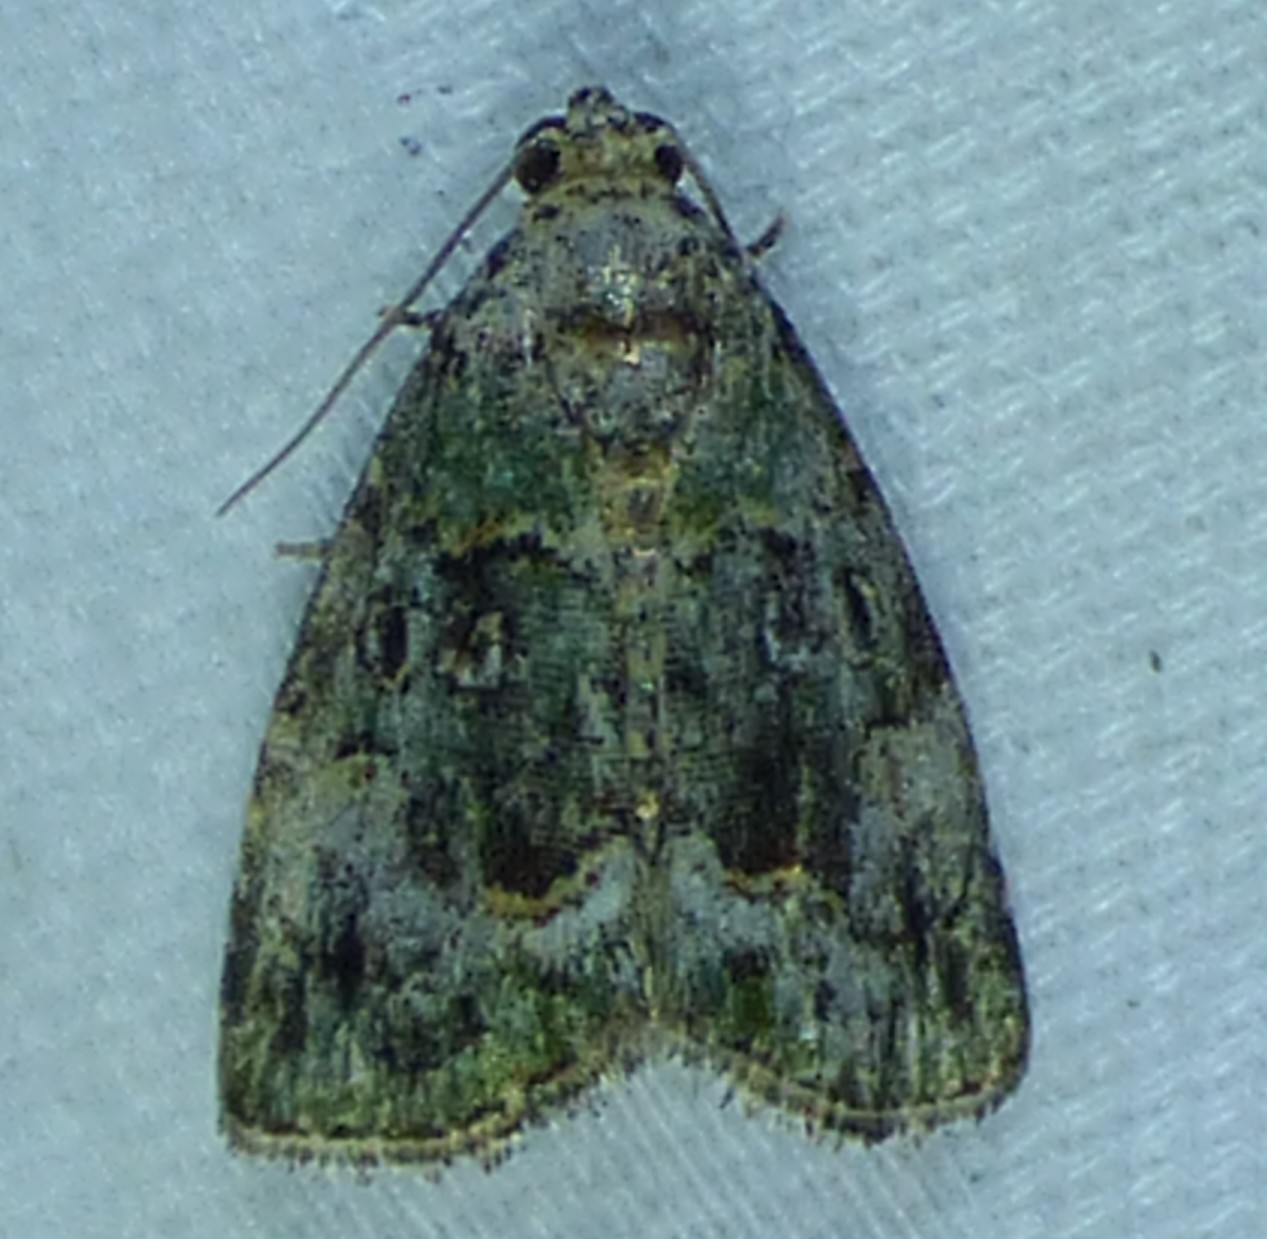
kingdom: Animalia
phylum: Arthropoda
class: Insecta
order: Lepidoptera
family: Noctuidae
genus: Lithacodia
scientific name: Lithacodia musta
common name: Small mossy glyph
